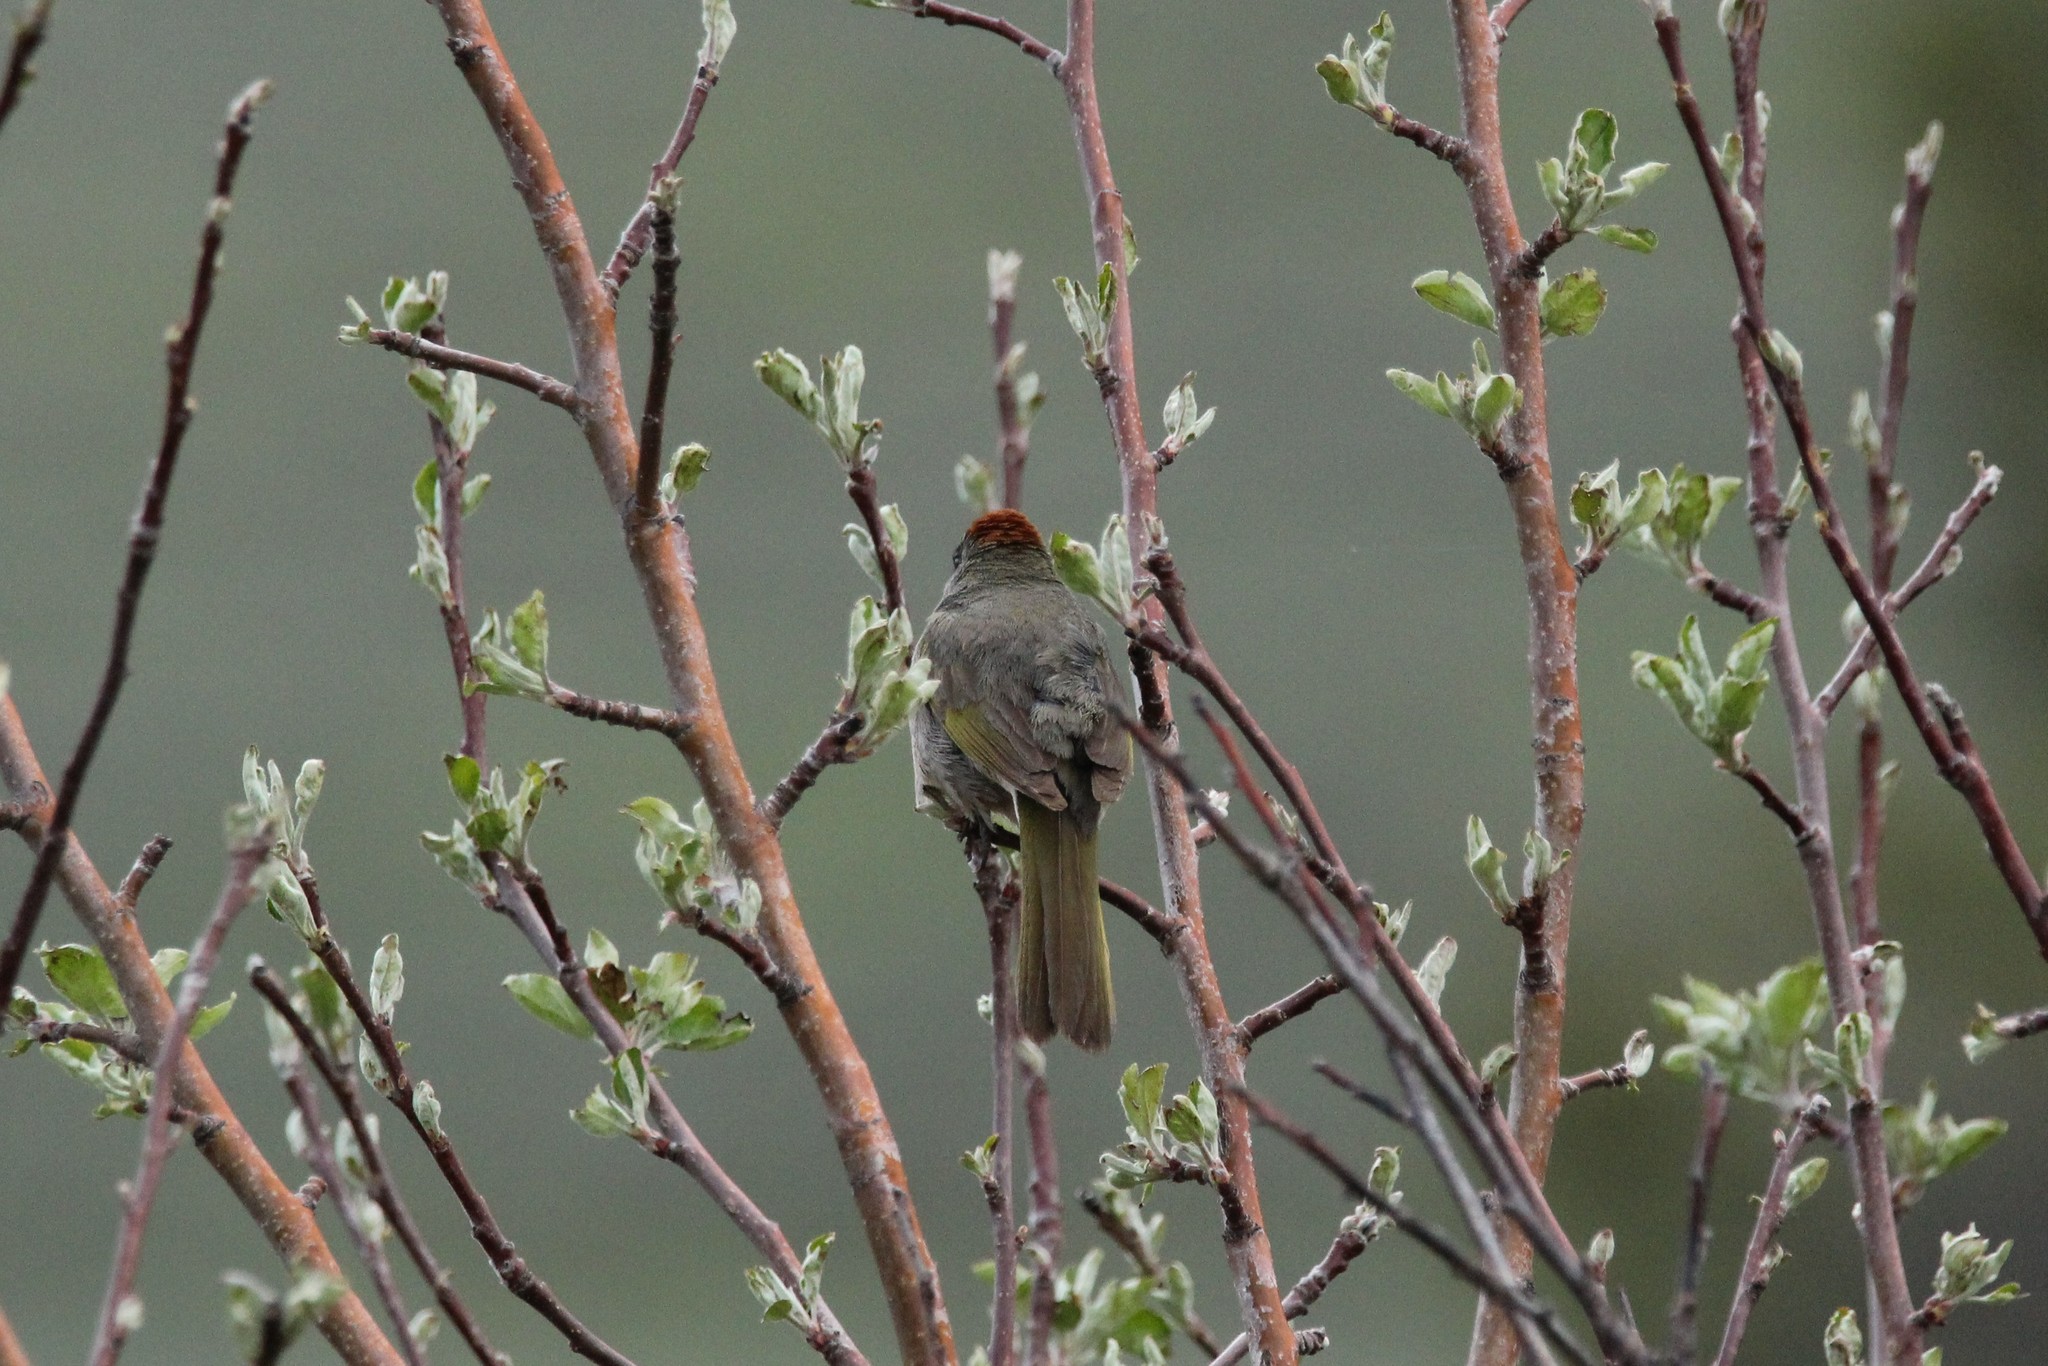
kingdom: Animalia
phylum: Chordata
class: Aves
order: Passeriformes
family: Passerellidae
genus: Pipilo
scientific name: Pipilo chlorurus
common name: Green-tailed towhee
